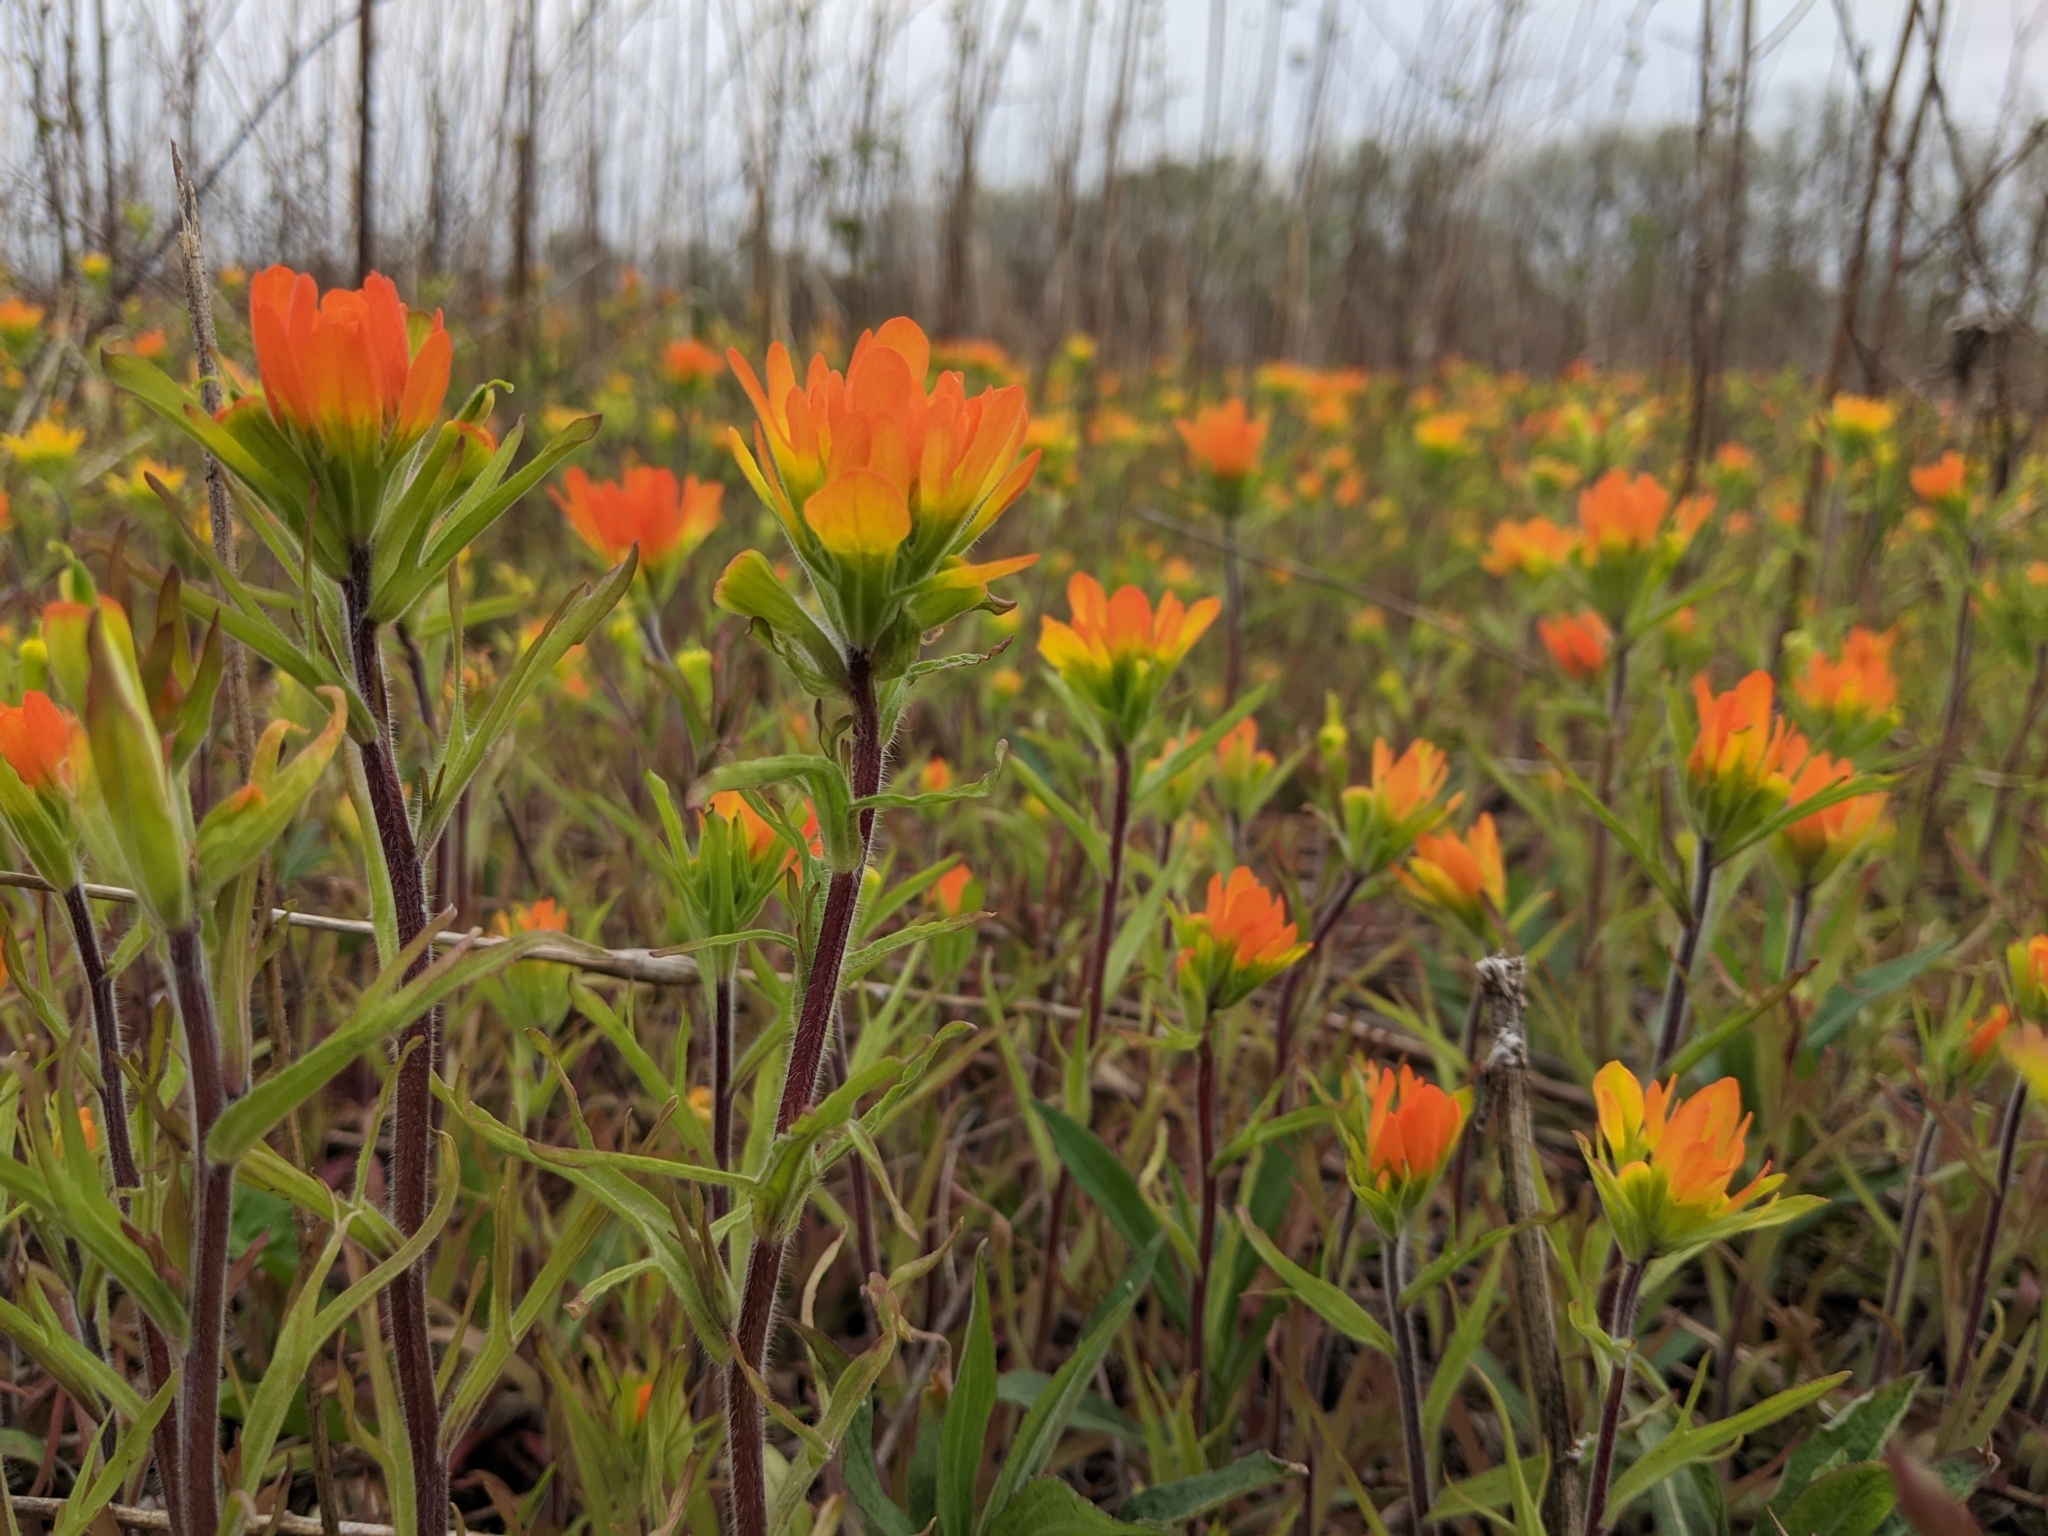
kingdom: Plantae
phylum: Tracheophyta
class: Magnoliopsida
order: Lamiales
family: Orobanchaceae
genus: Castilleja
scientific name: Castilleja coccinea
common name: Scarlet paintbrush
